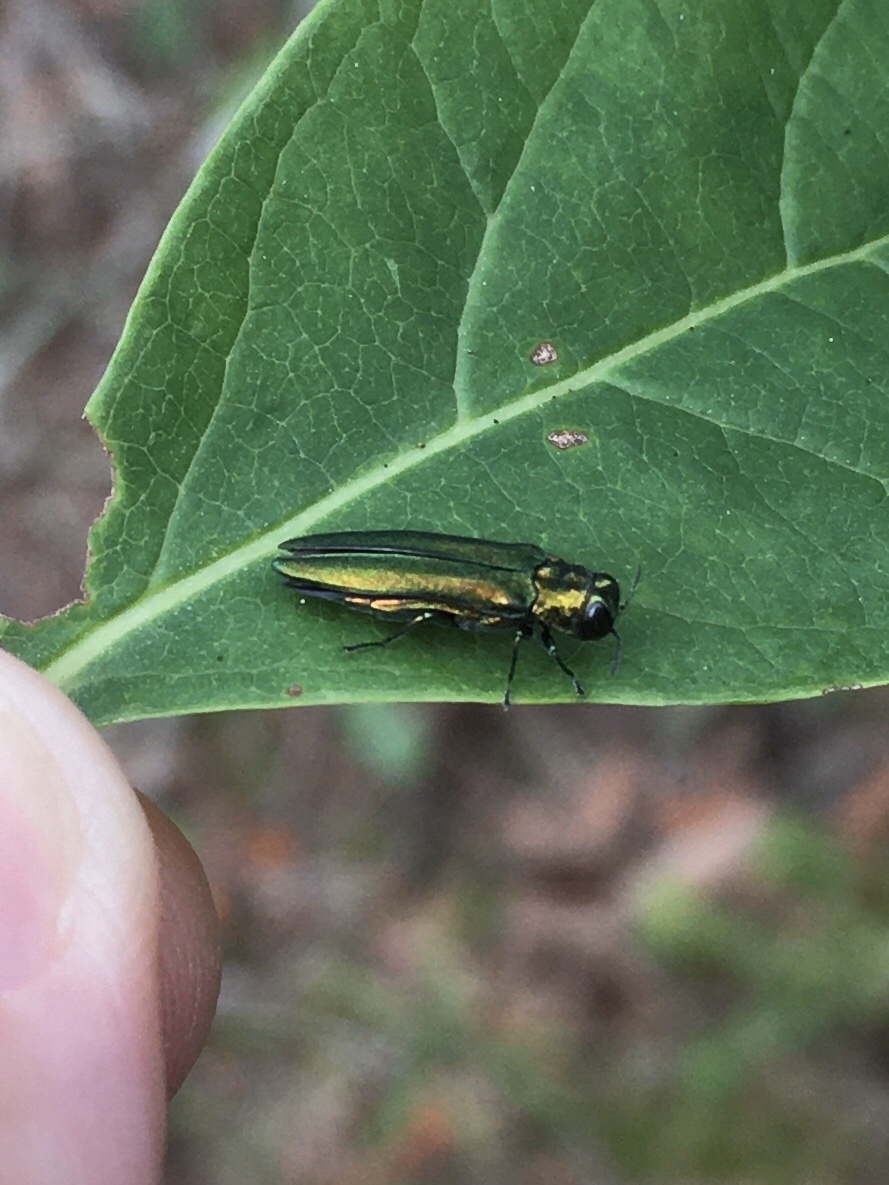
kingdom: Animalia
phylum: Arthropoda
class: Insecta
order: Coleoptera
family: Buprestidae
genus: Agrilus
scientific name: Agrilus planipennis
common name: Emerald ash borer
